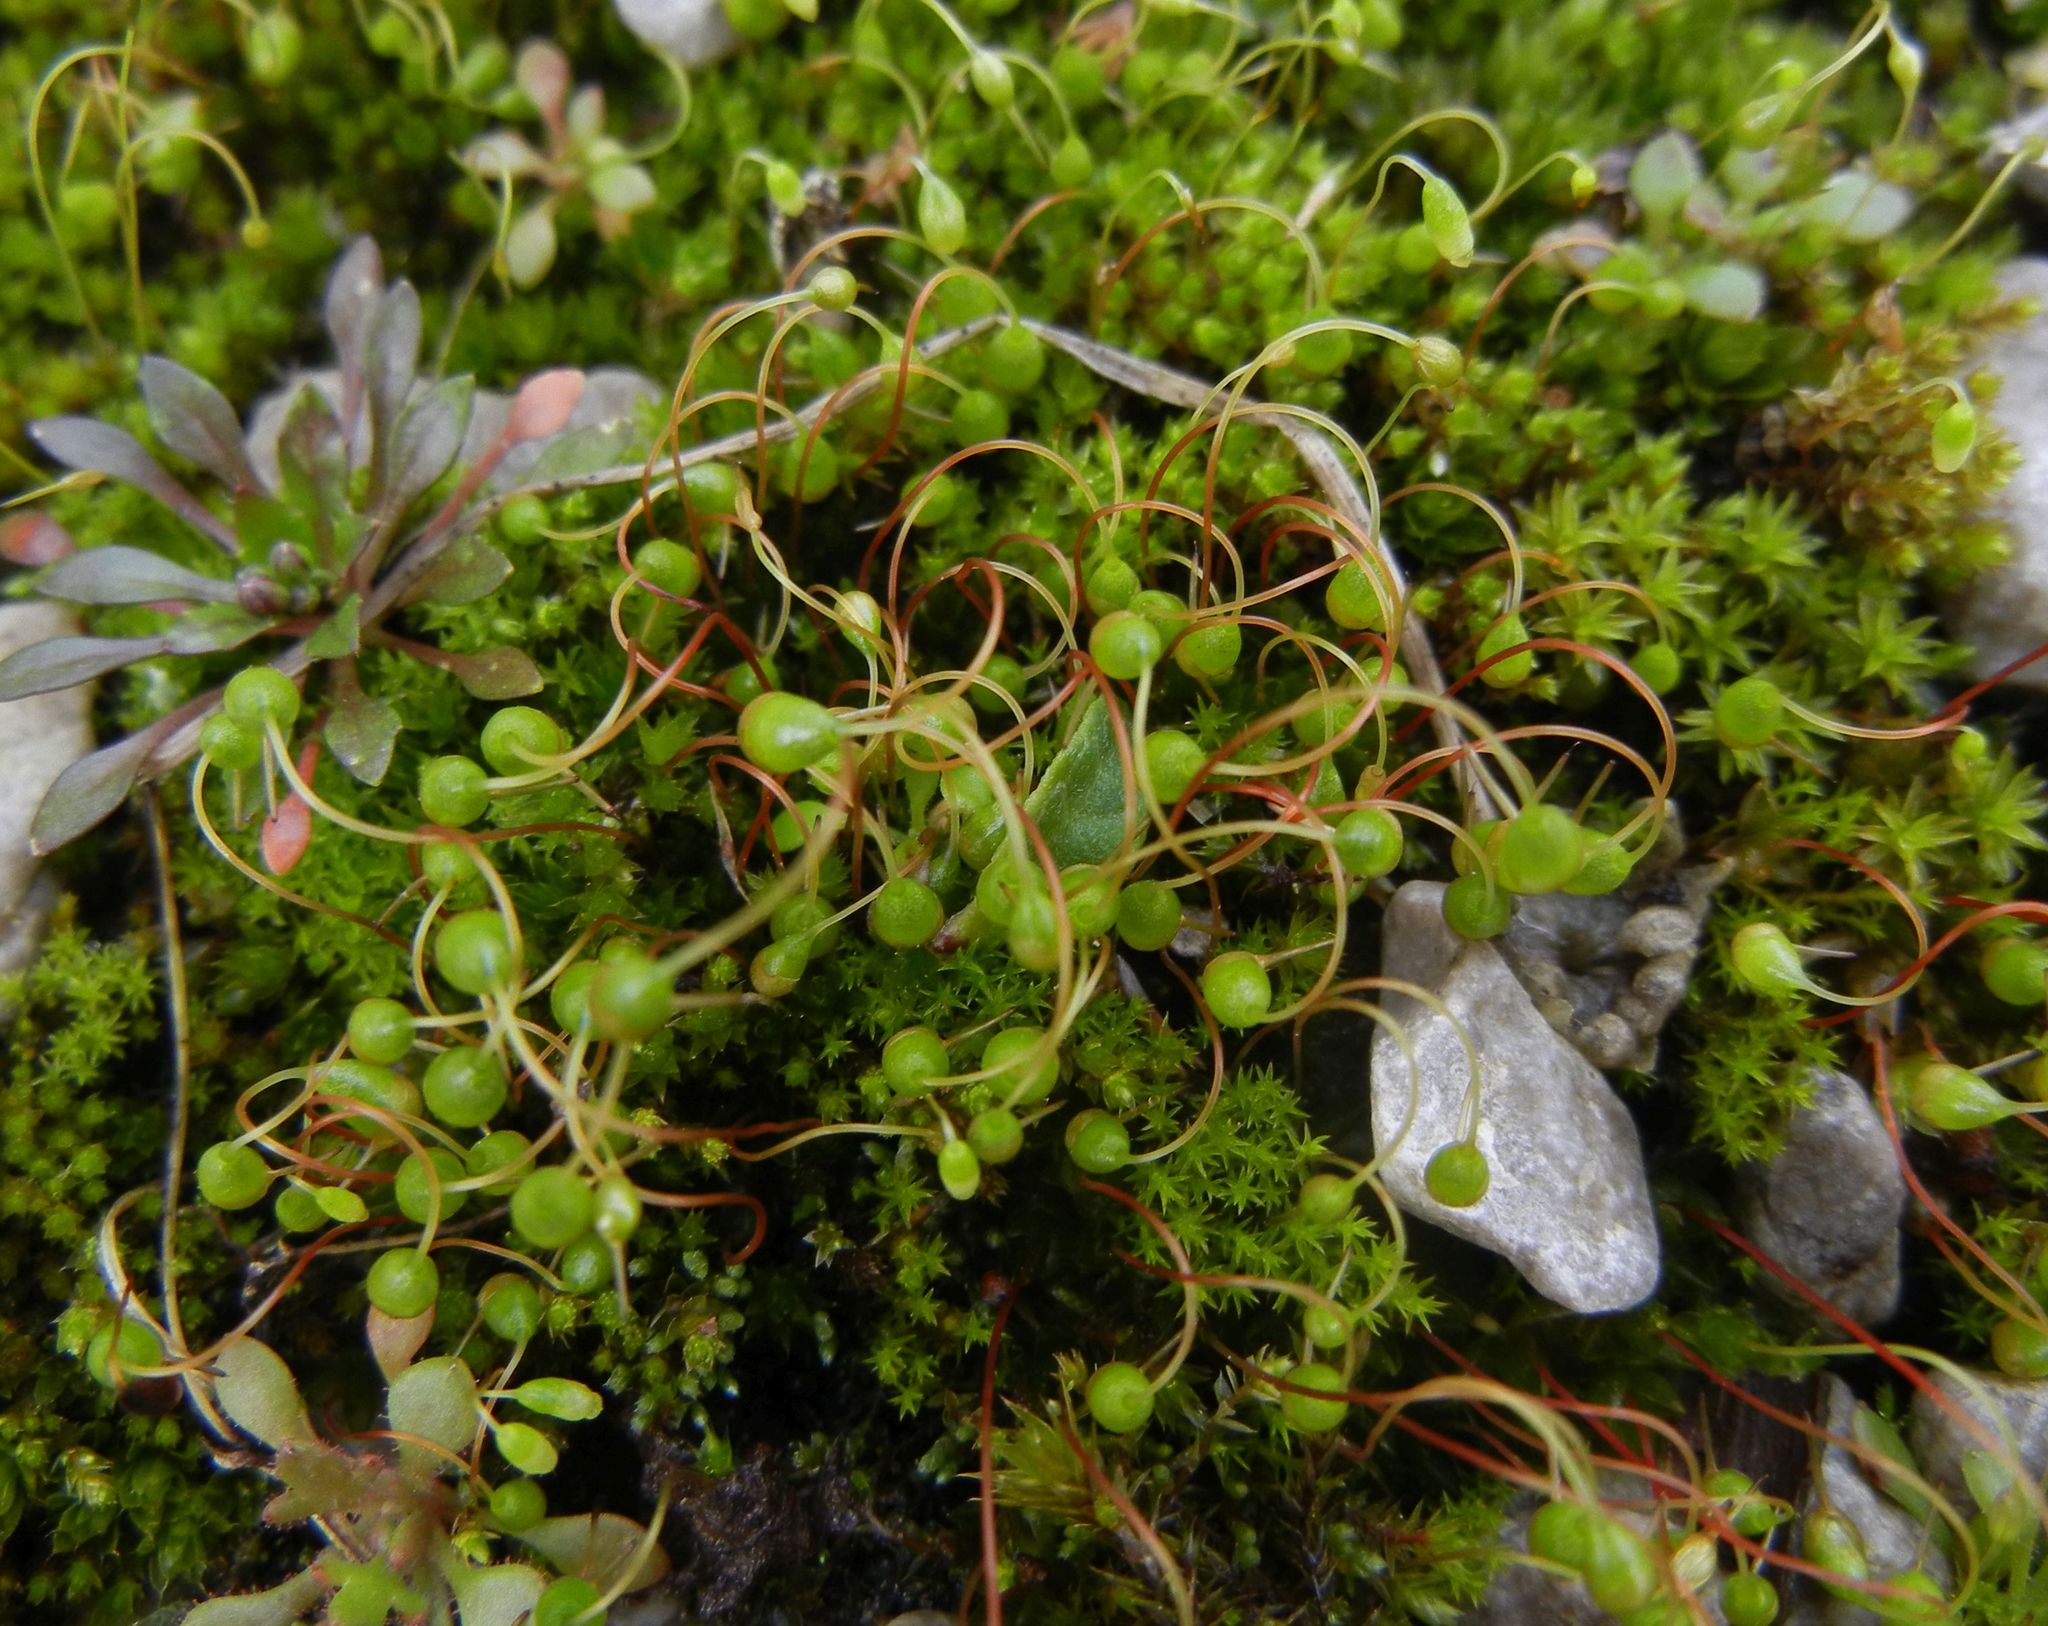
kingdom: Plantae
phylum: Bryophyta
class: Bryopsida
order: Funariales
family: Funariaceae
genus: Funaria
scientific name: Funaria hygrometrica
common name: Common cord moss
